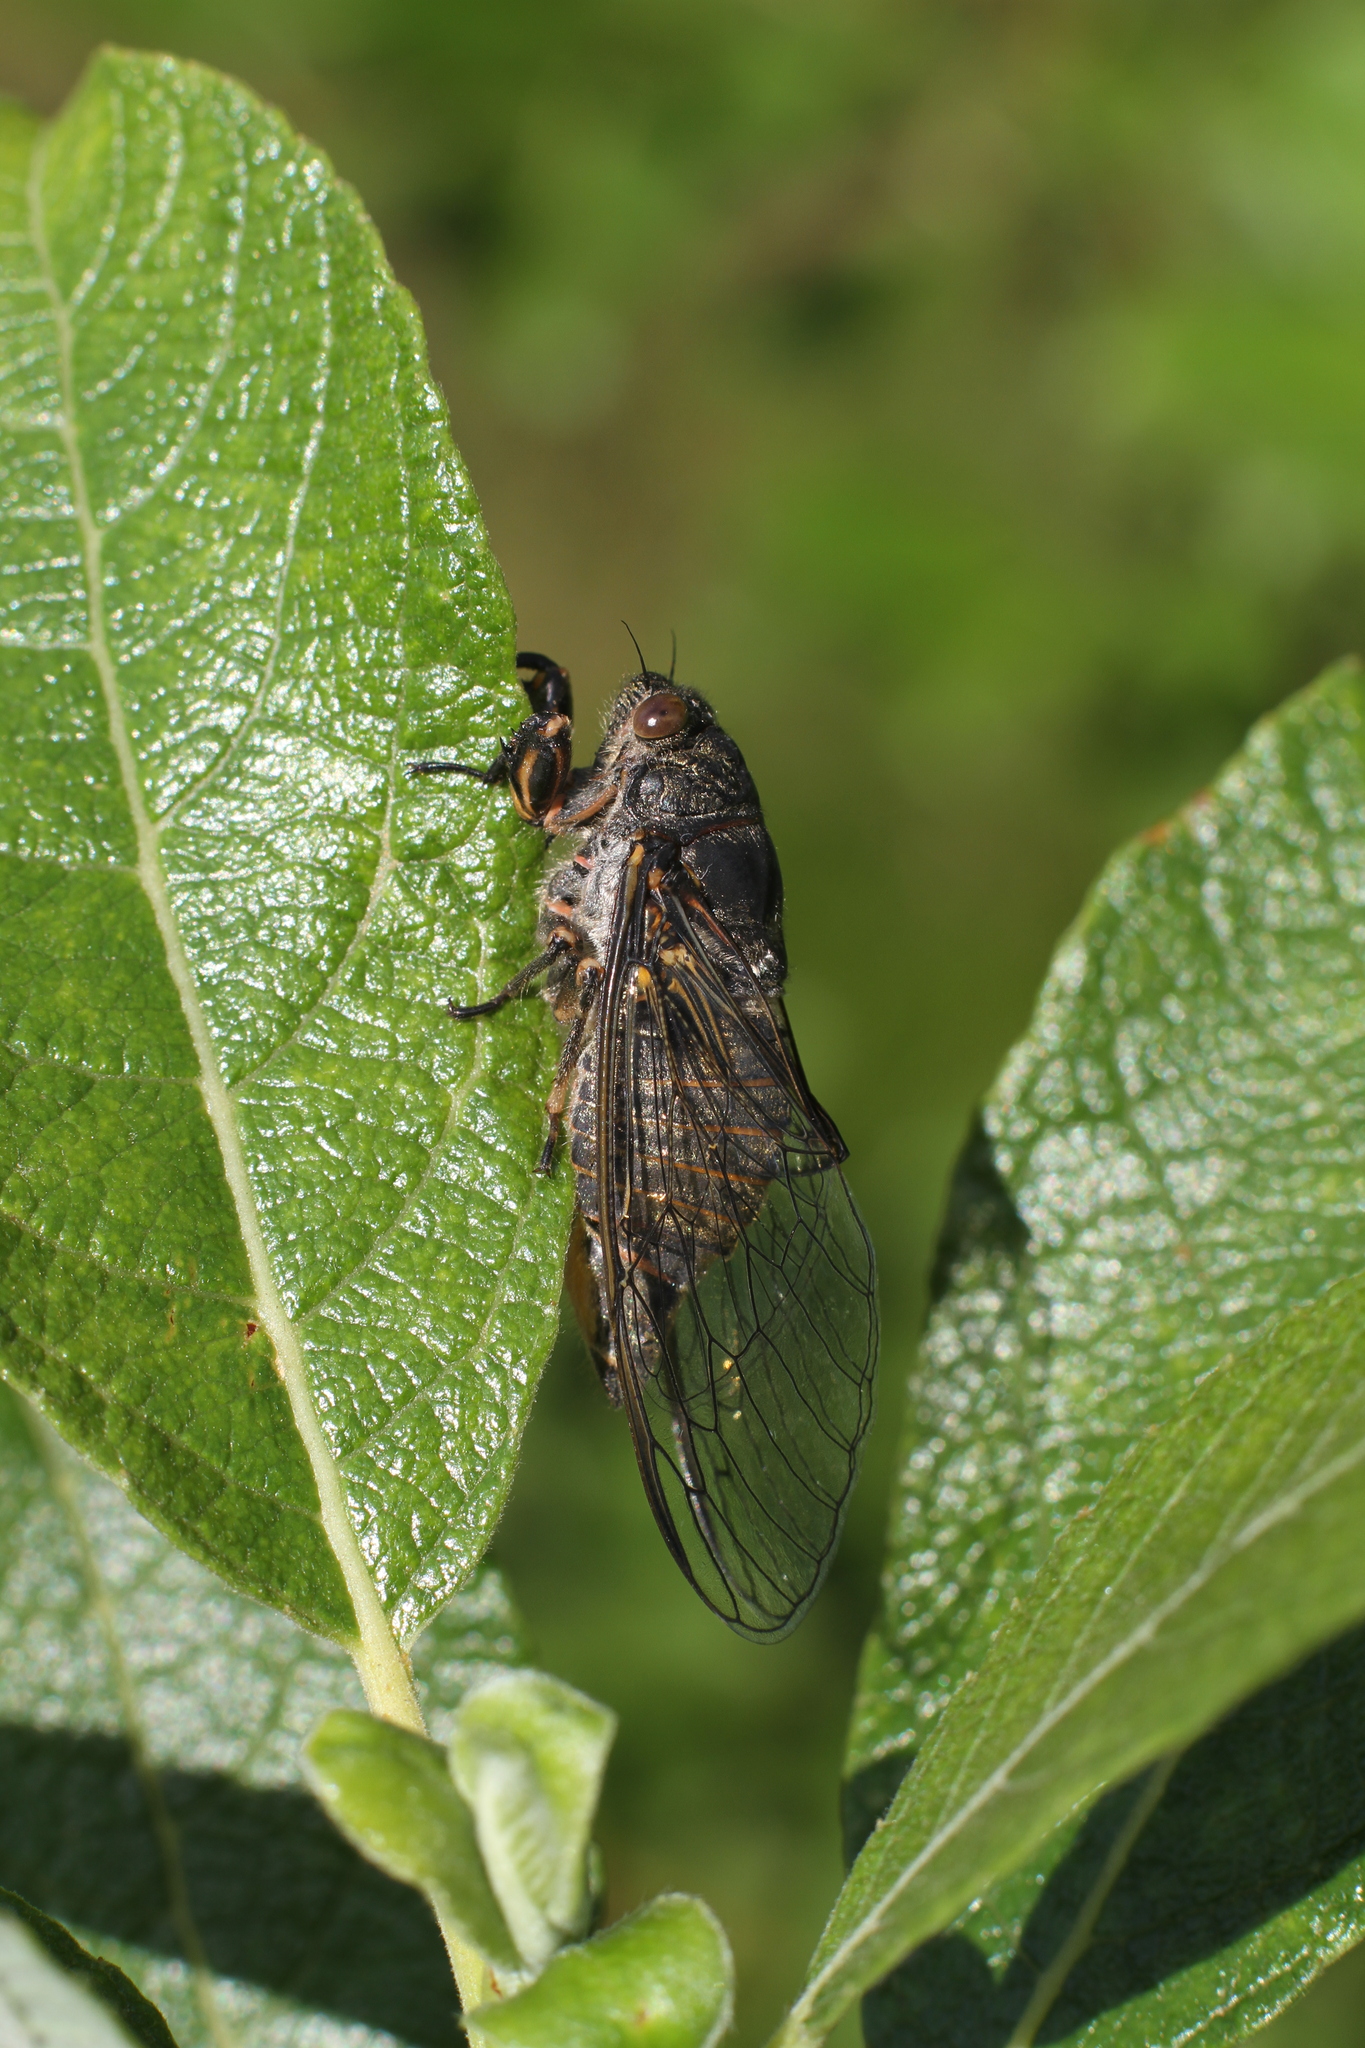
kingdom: Animalia
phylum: Arthropoda
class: Insecta
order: Hemiptera
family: Cicadidae
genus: Cicadetta
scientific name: Cicadetta montana
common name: New forest cicada
